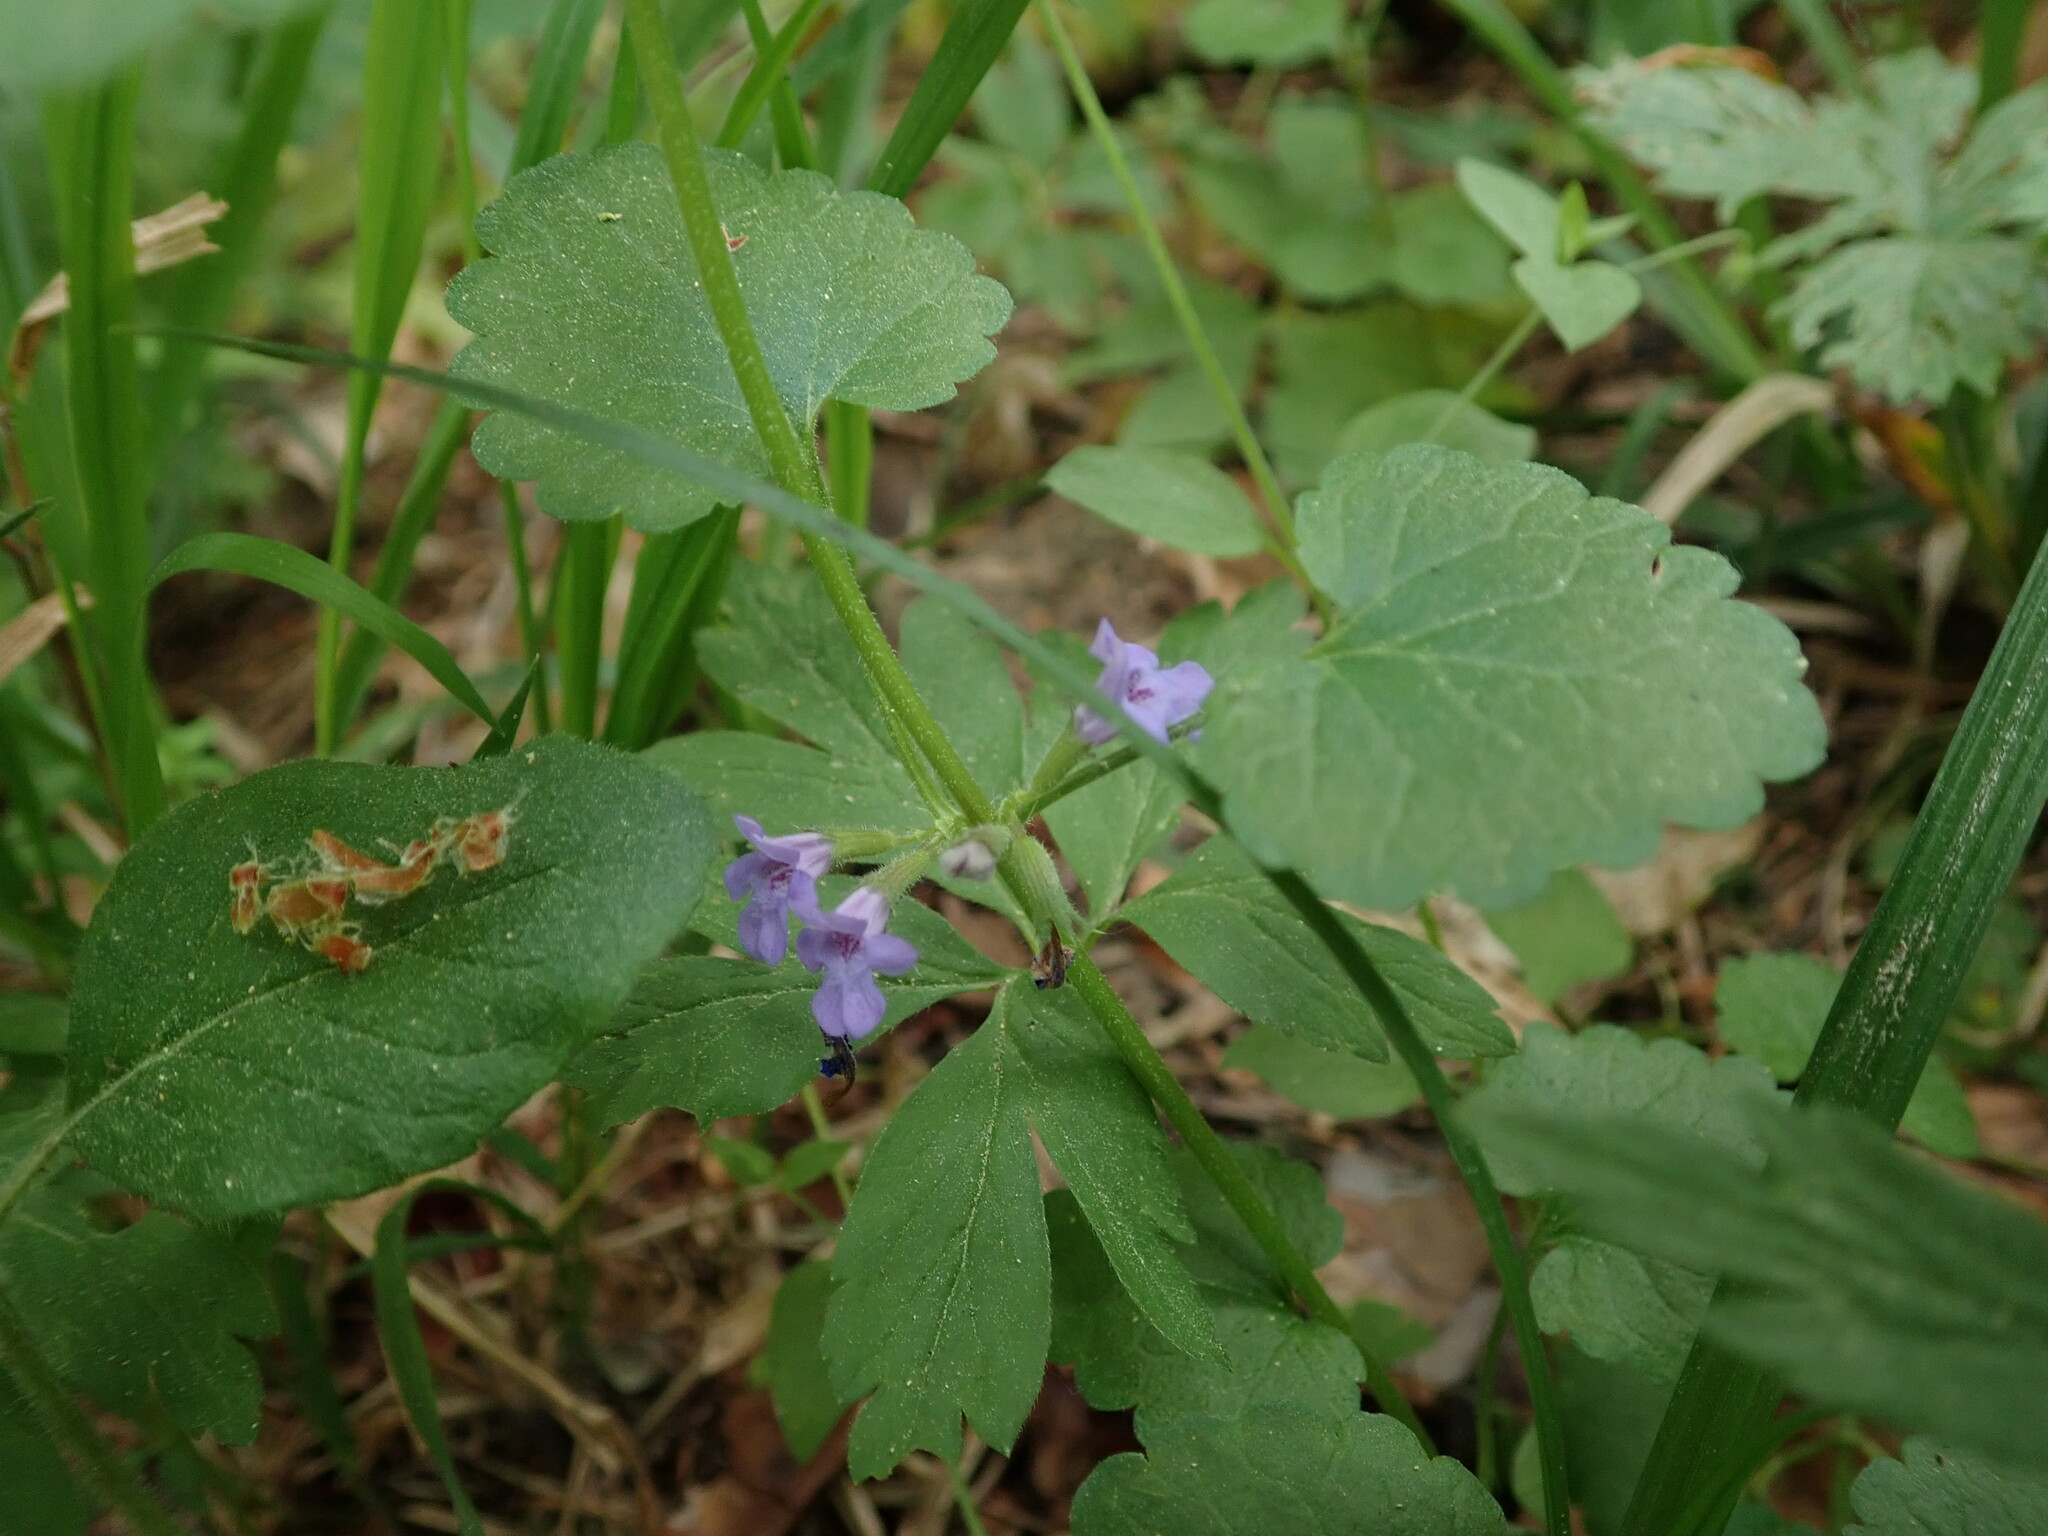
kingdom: Plantae
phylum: Tracheophyta
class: Magnoliopsida
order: Lamiales
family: Lamiaceae
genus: Glechoma
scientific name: Glechoma hederacea
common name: Ground ivy
